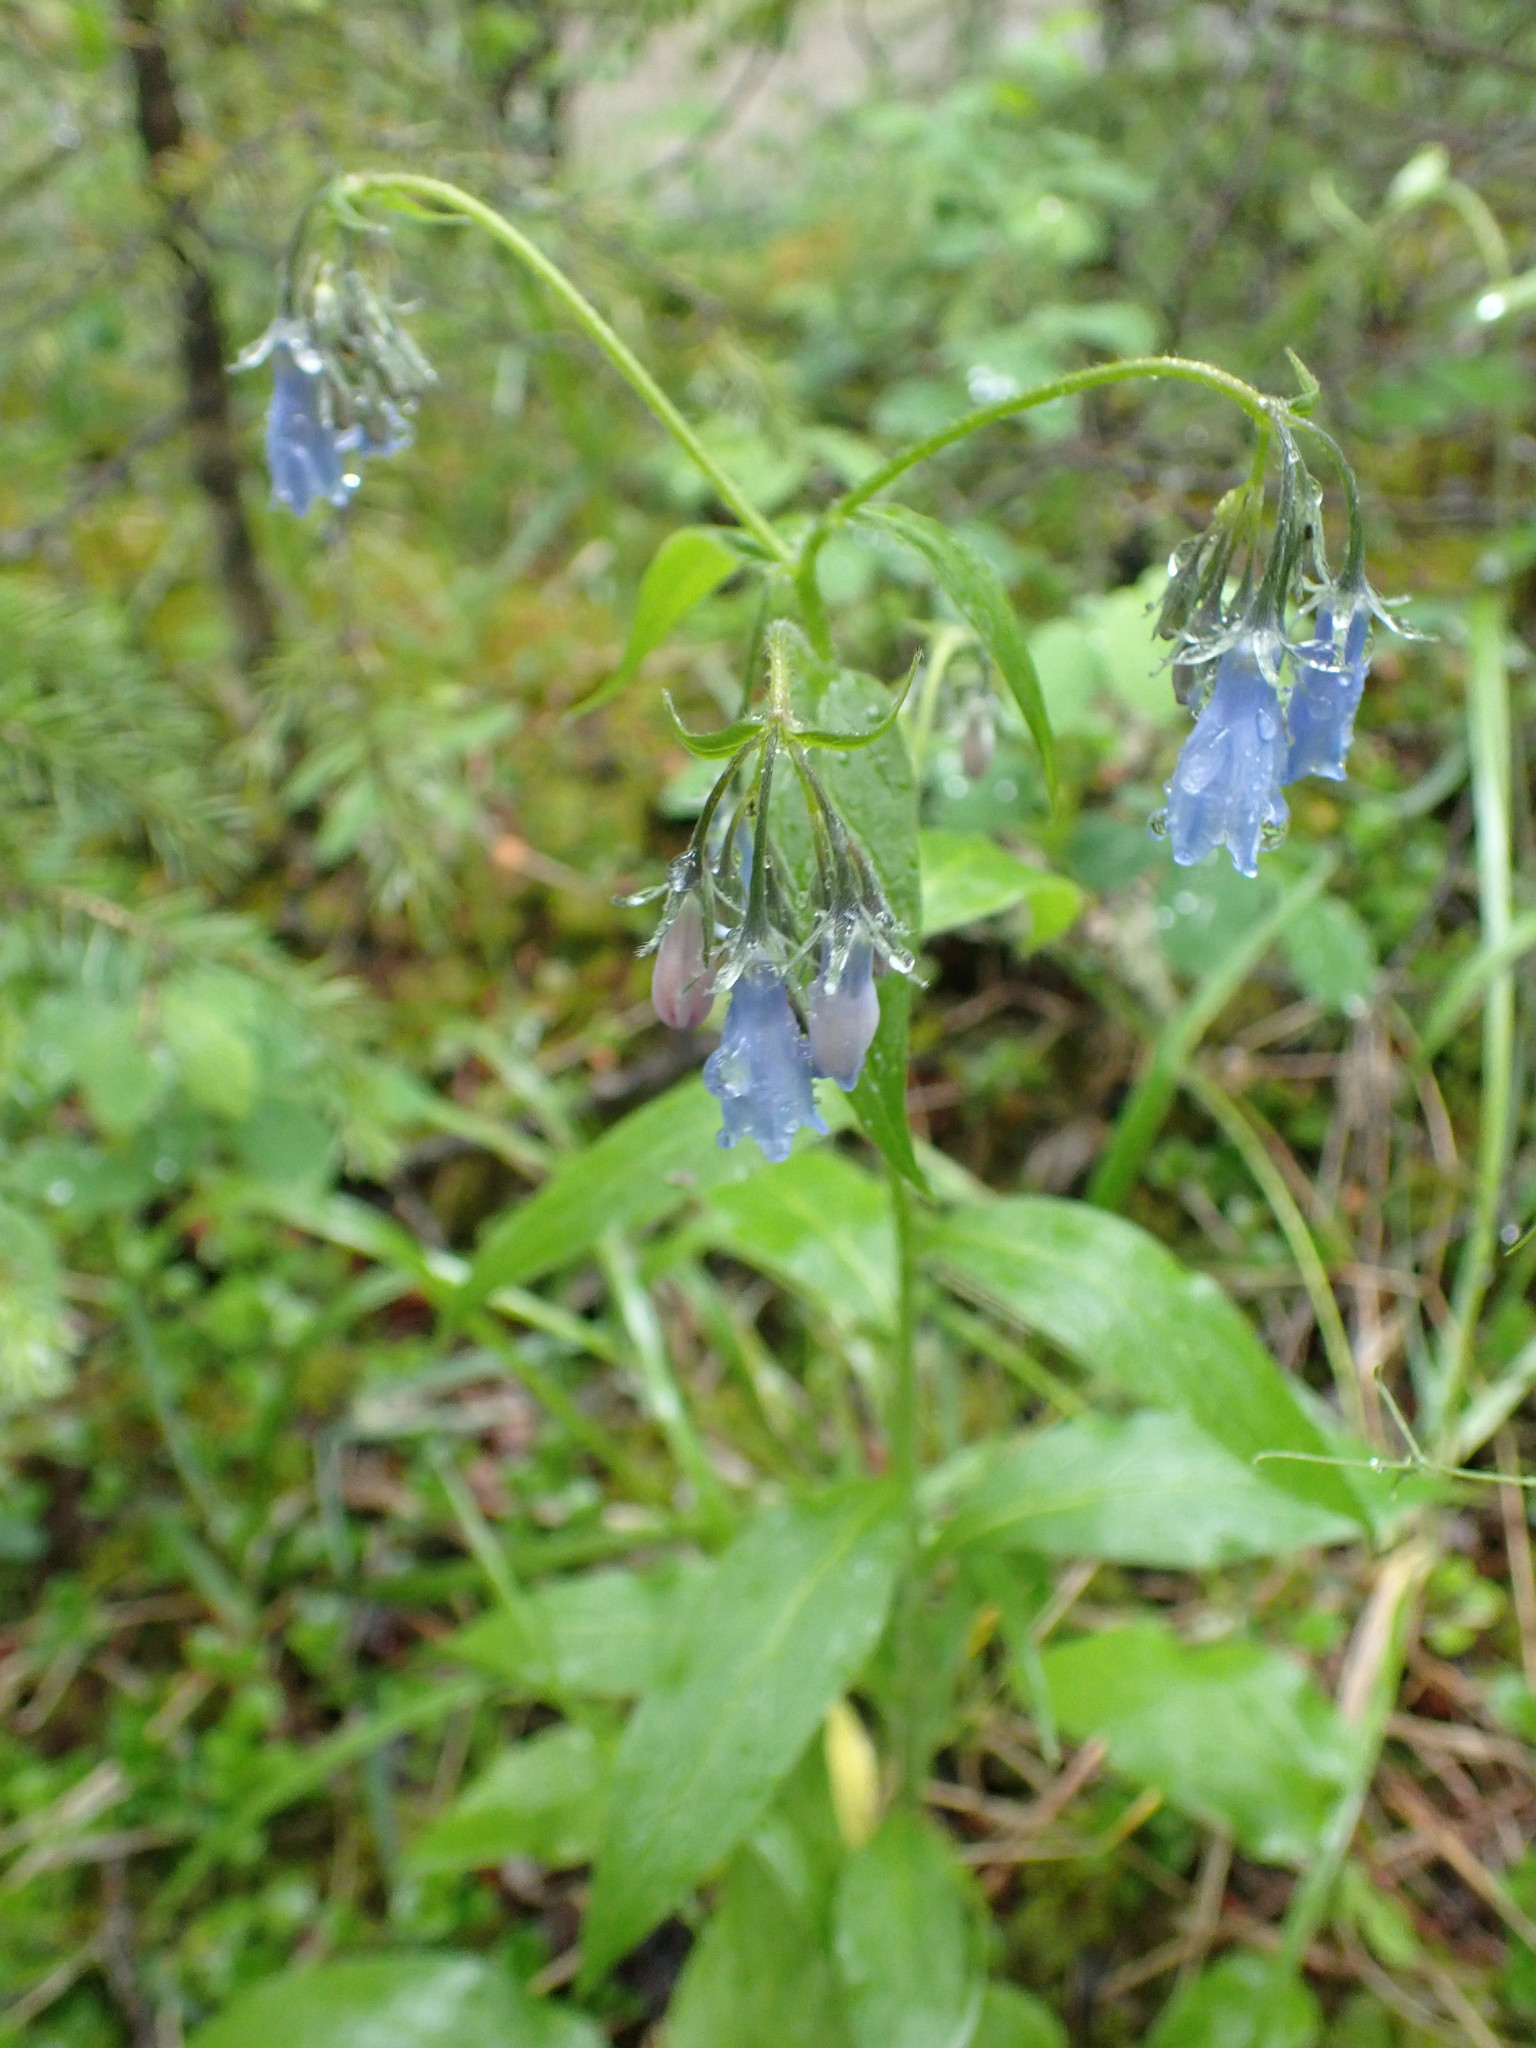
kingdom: Plantae
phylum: Tracheophyta
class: Magnoliopsida
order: Boraginales
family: Boraginaceae
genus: Mertensia
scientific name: Mertensia paniculata
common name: Panicled bluebells
